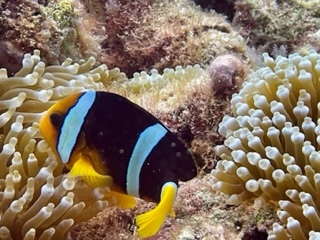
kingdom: Animalia
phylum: Chordata
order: Perciformes
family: Pomacentridae
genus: Amphiprion
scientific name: Amphiprion clarkii
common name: Clark's anemonefish
